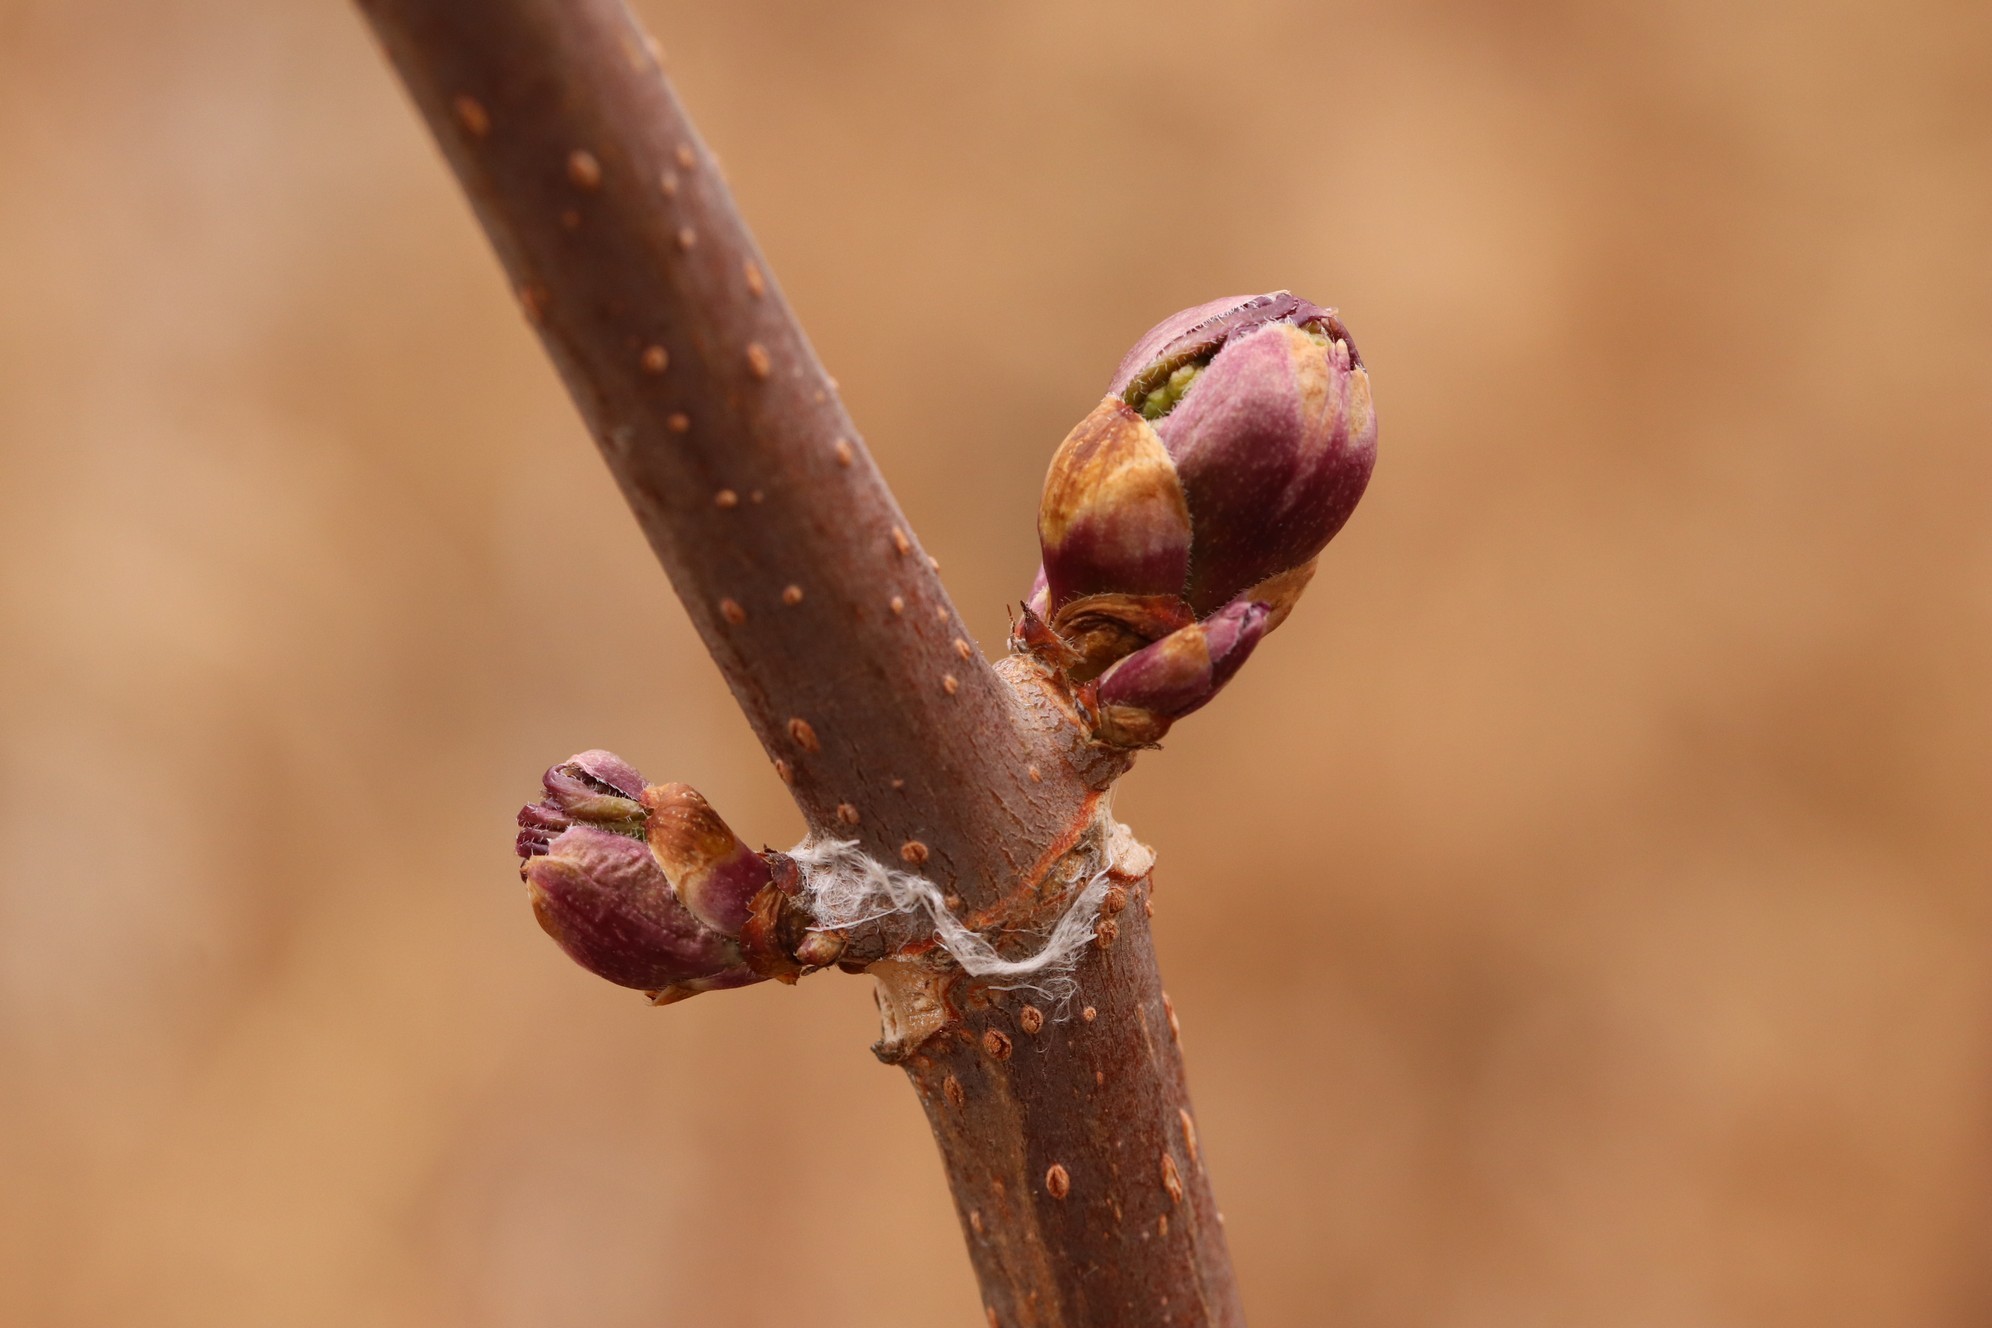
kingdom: Plantae
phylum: Tracheophyta
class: Magnoliopsida
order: Dipsacales
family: Viburnaceae
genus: Sambucus
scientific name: Sambucus sibirica
